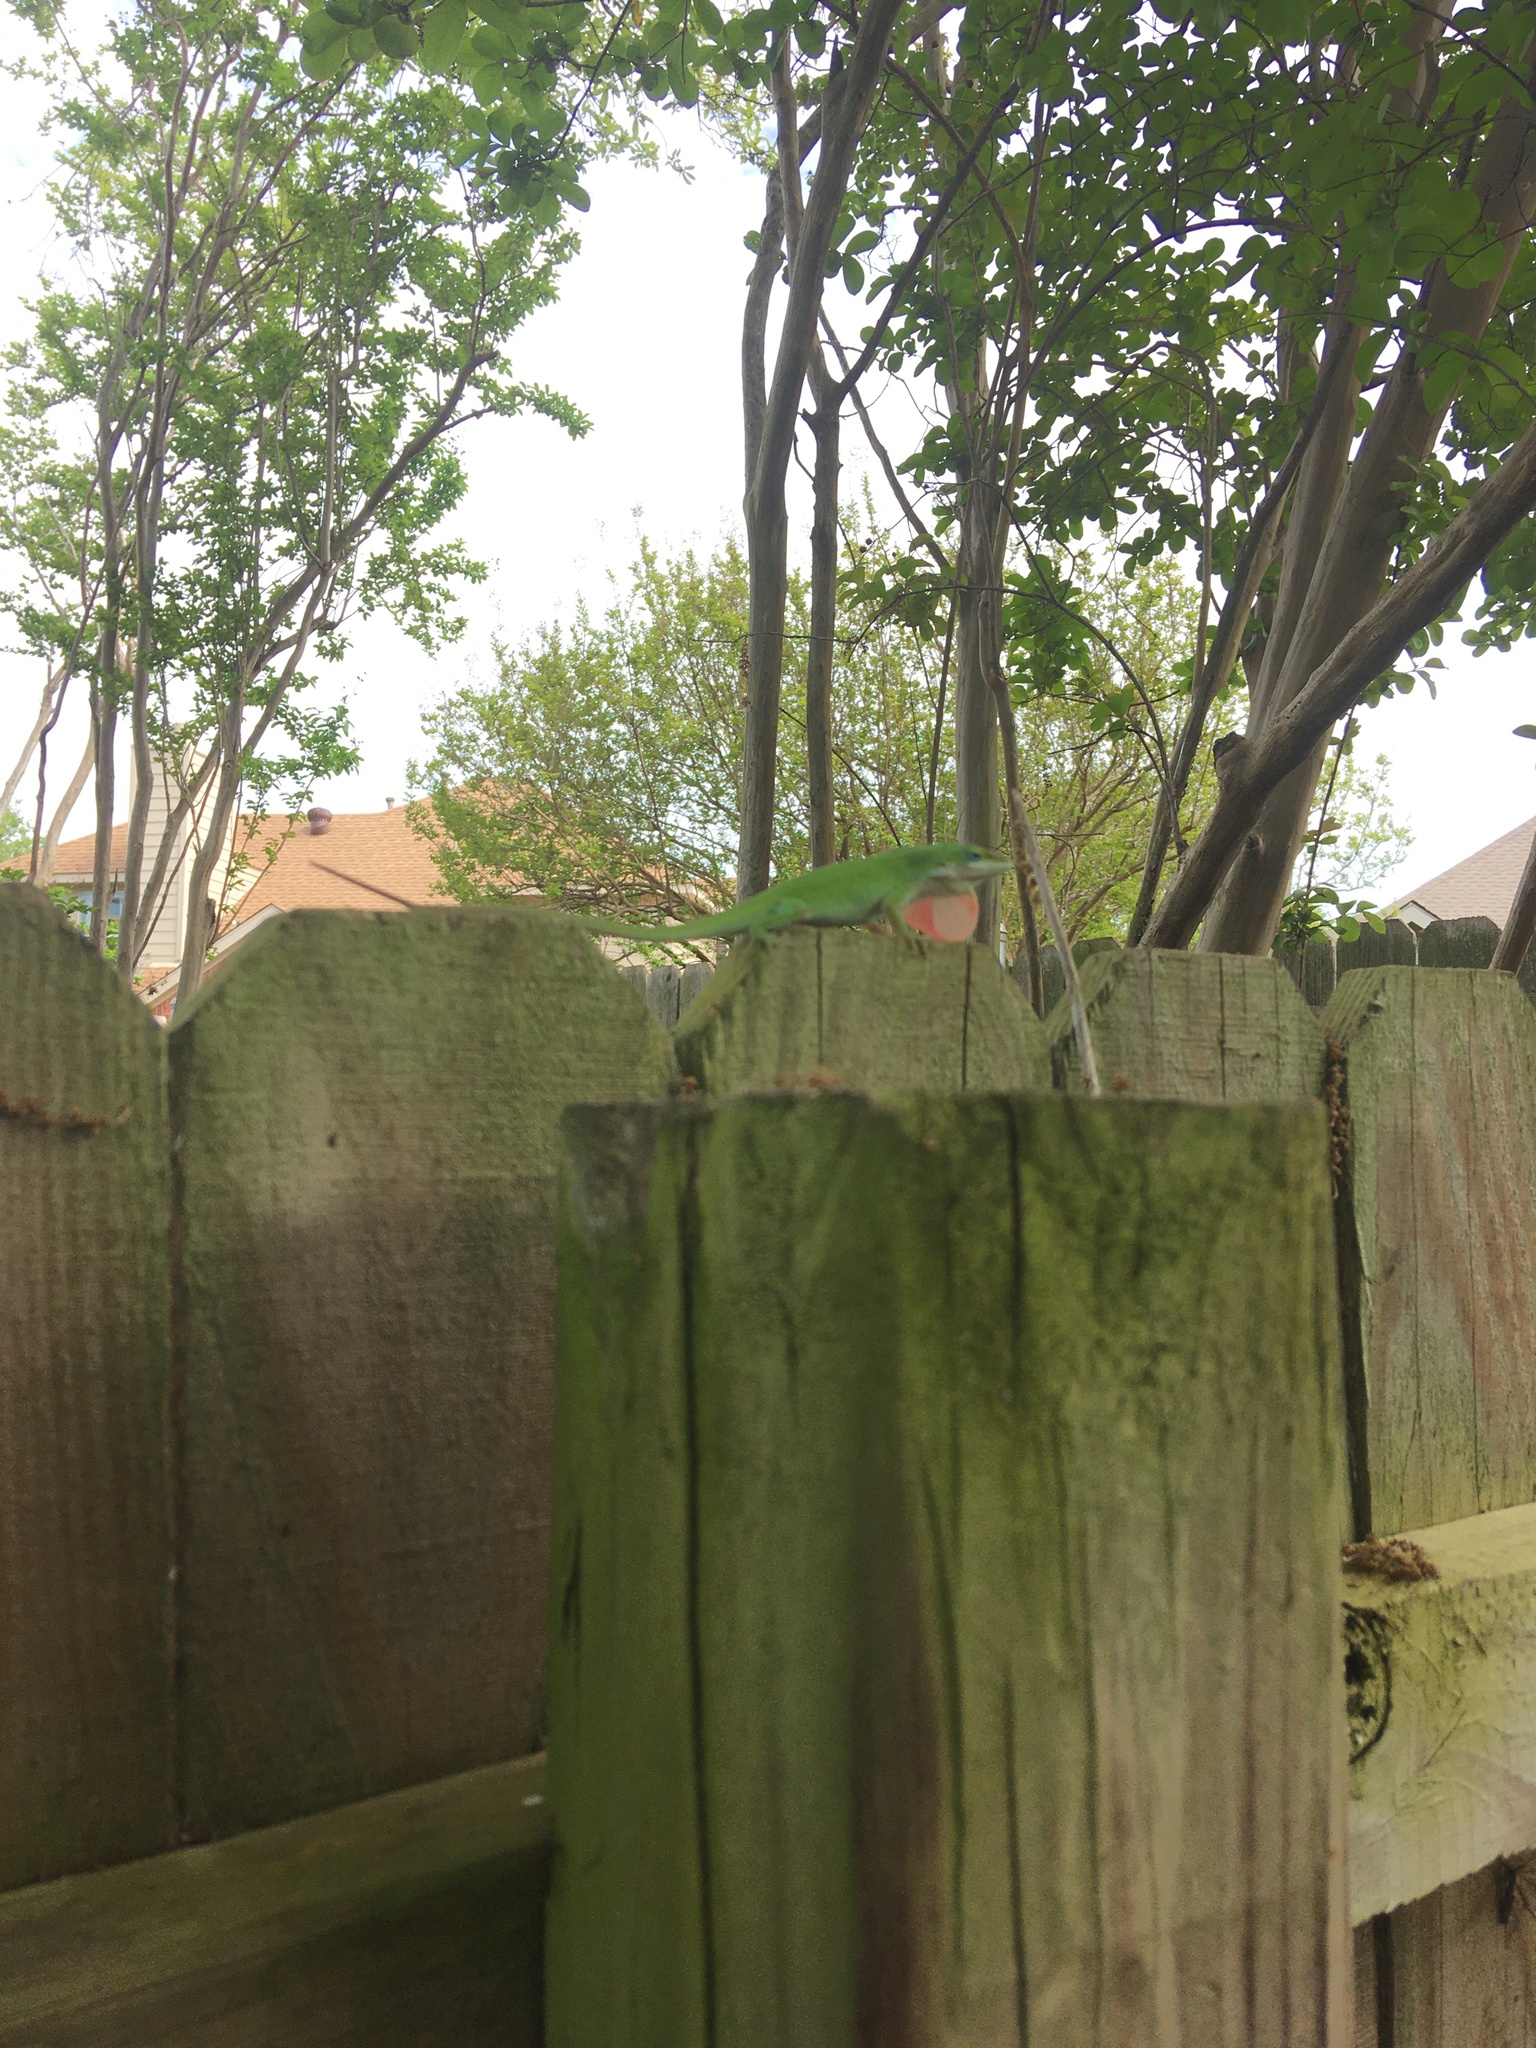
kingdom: Animalia
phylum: Chordata
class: Squamata
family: Dactyloidae
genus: Anolis
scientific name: Anolis carolinensis
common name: Green anole
